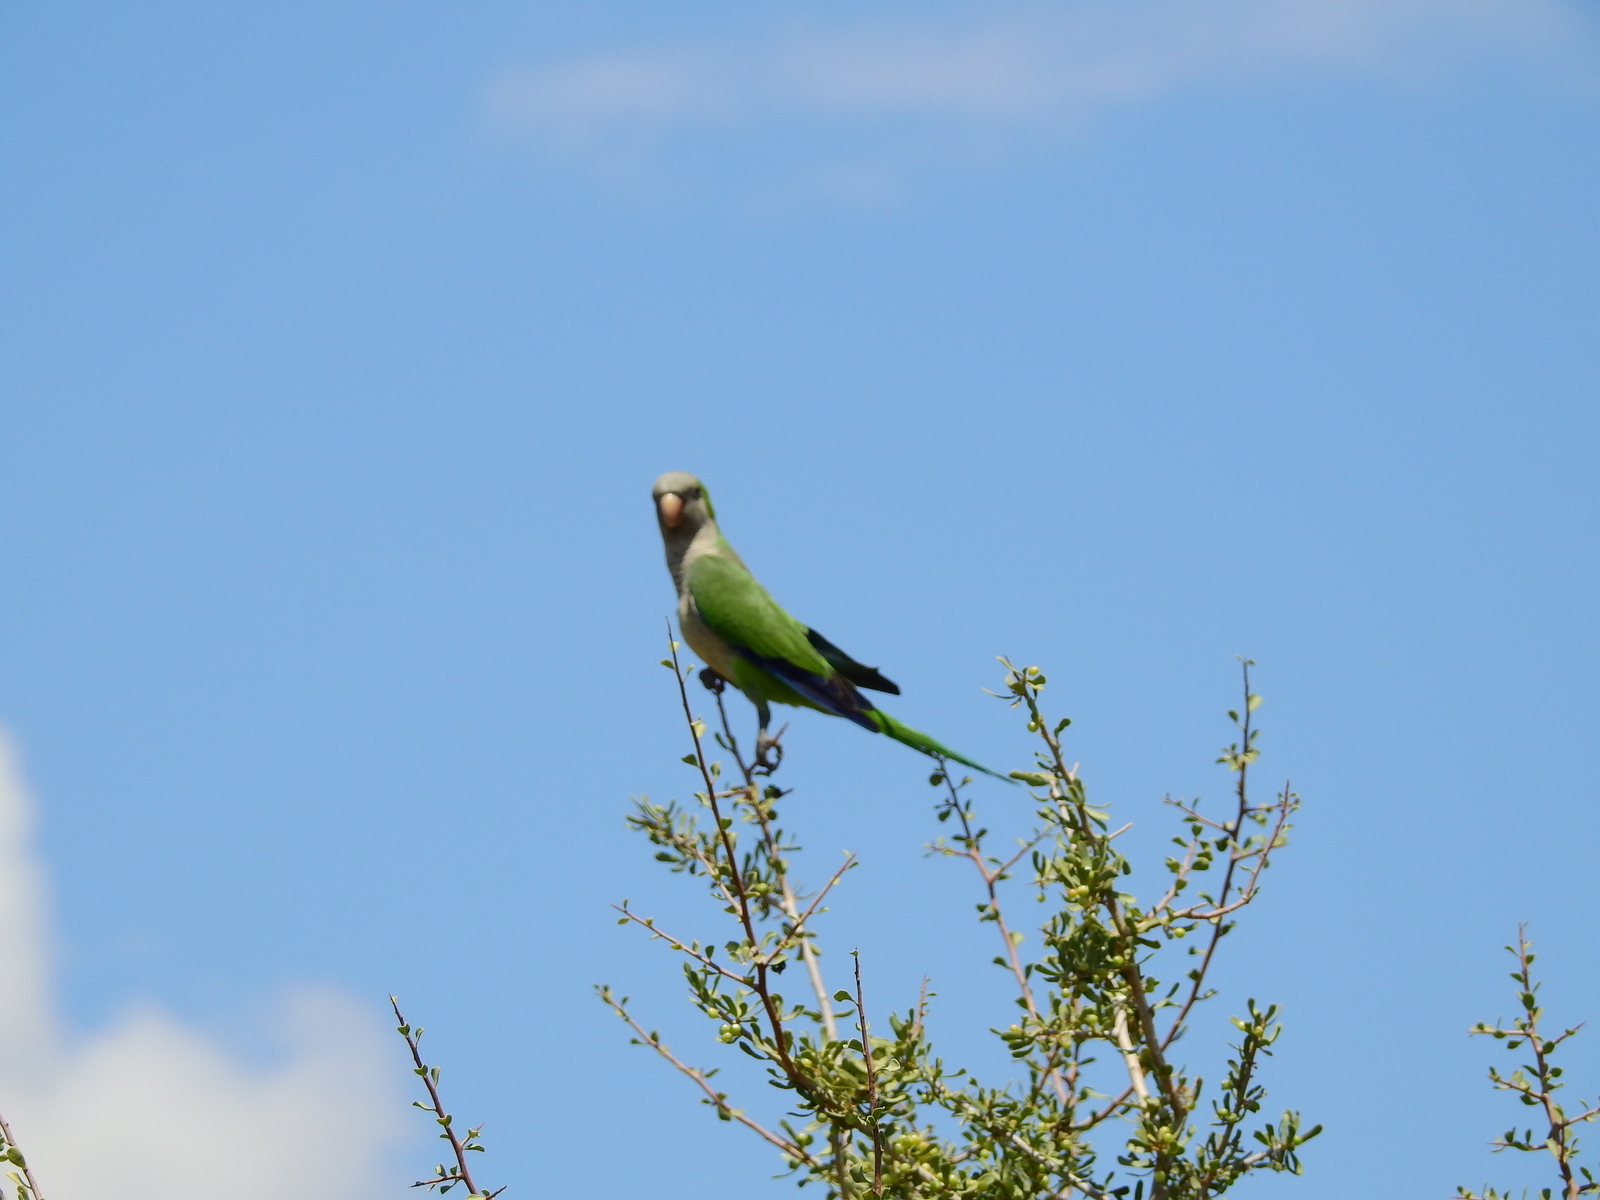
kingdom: Animalia
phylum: Chordata
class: Aves
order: Psittaciformes
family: Psittacidae
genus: Myiopsitta
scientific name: Myiopsitta monachus
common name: Monk parakeet
